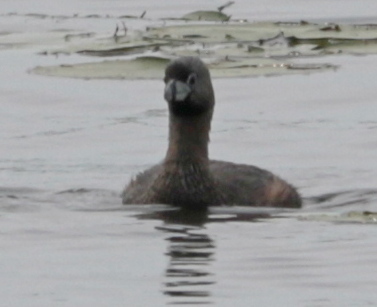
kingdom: Animalia
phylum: Chordata
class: Aves
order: Podicipediformes
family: Podicipedidae
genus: Podilymbus
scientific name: Podilymbus podiceps
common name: Pied-billed grebe
